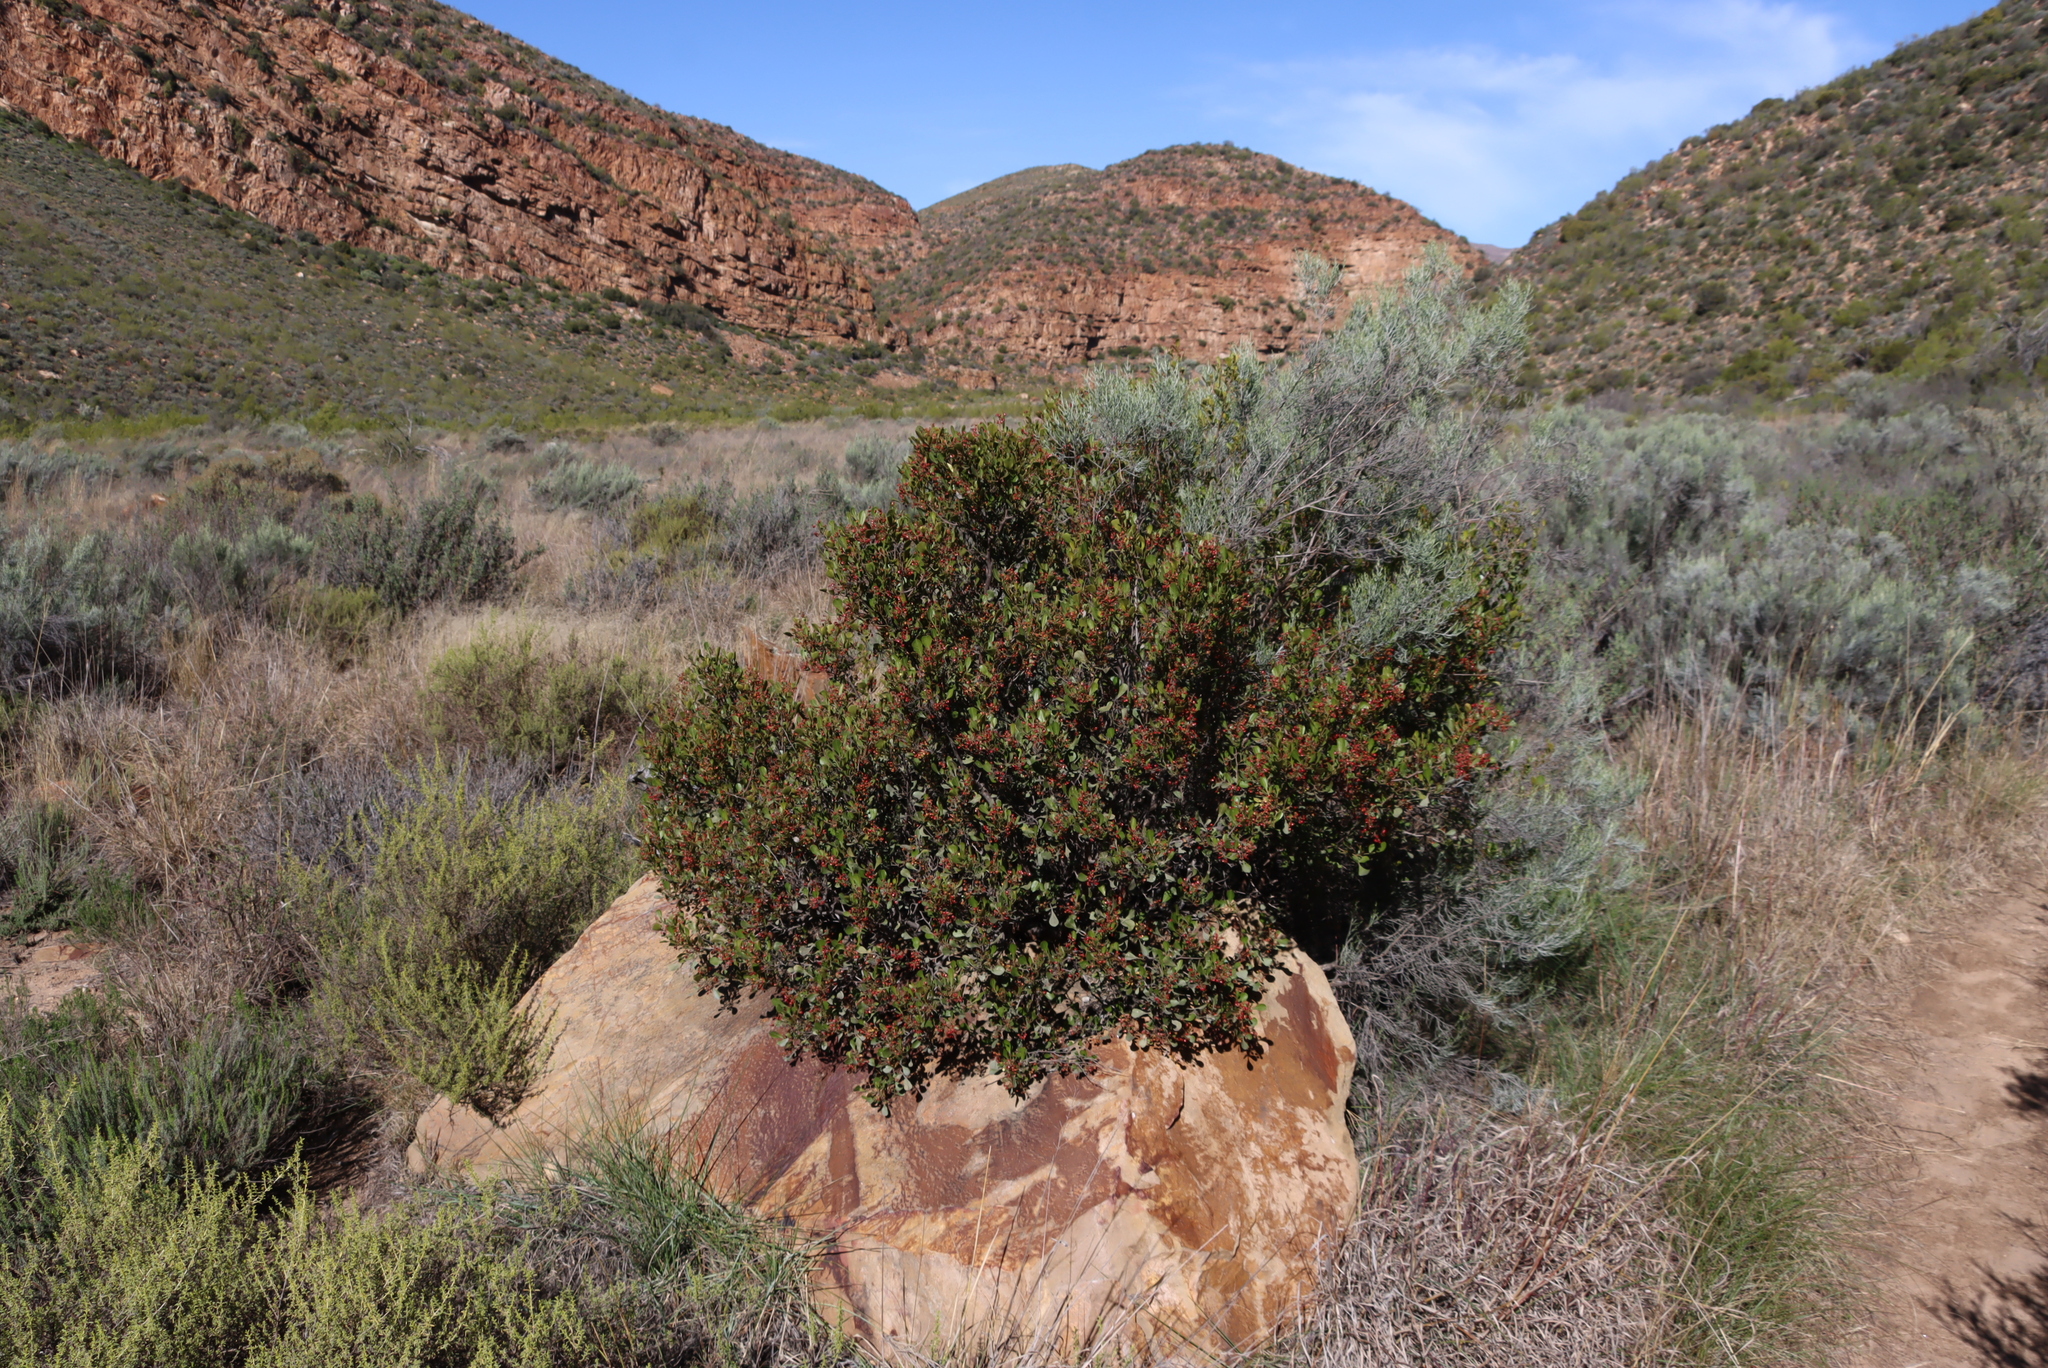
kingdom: Plantae
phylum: Tracheophyta
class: Magnoliopsida
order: Sapindales
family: Anacardiaceae
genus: Searsia
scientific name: Searsia pallens
